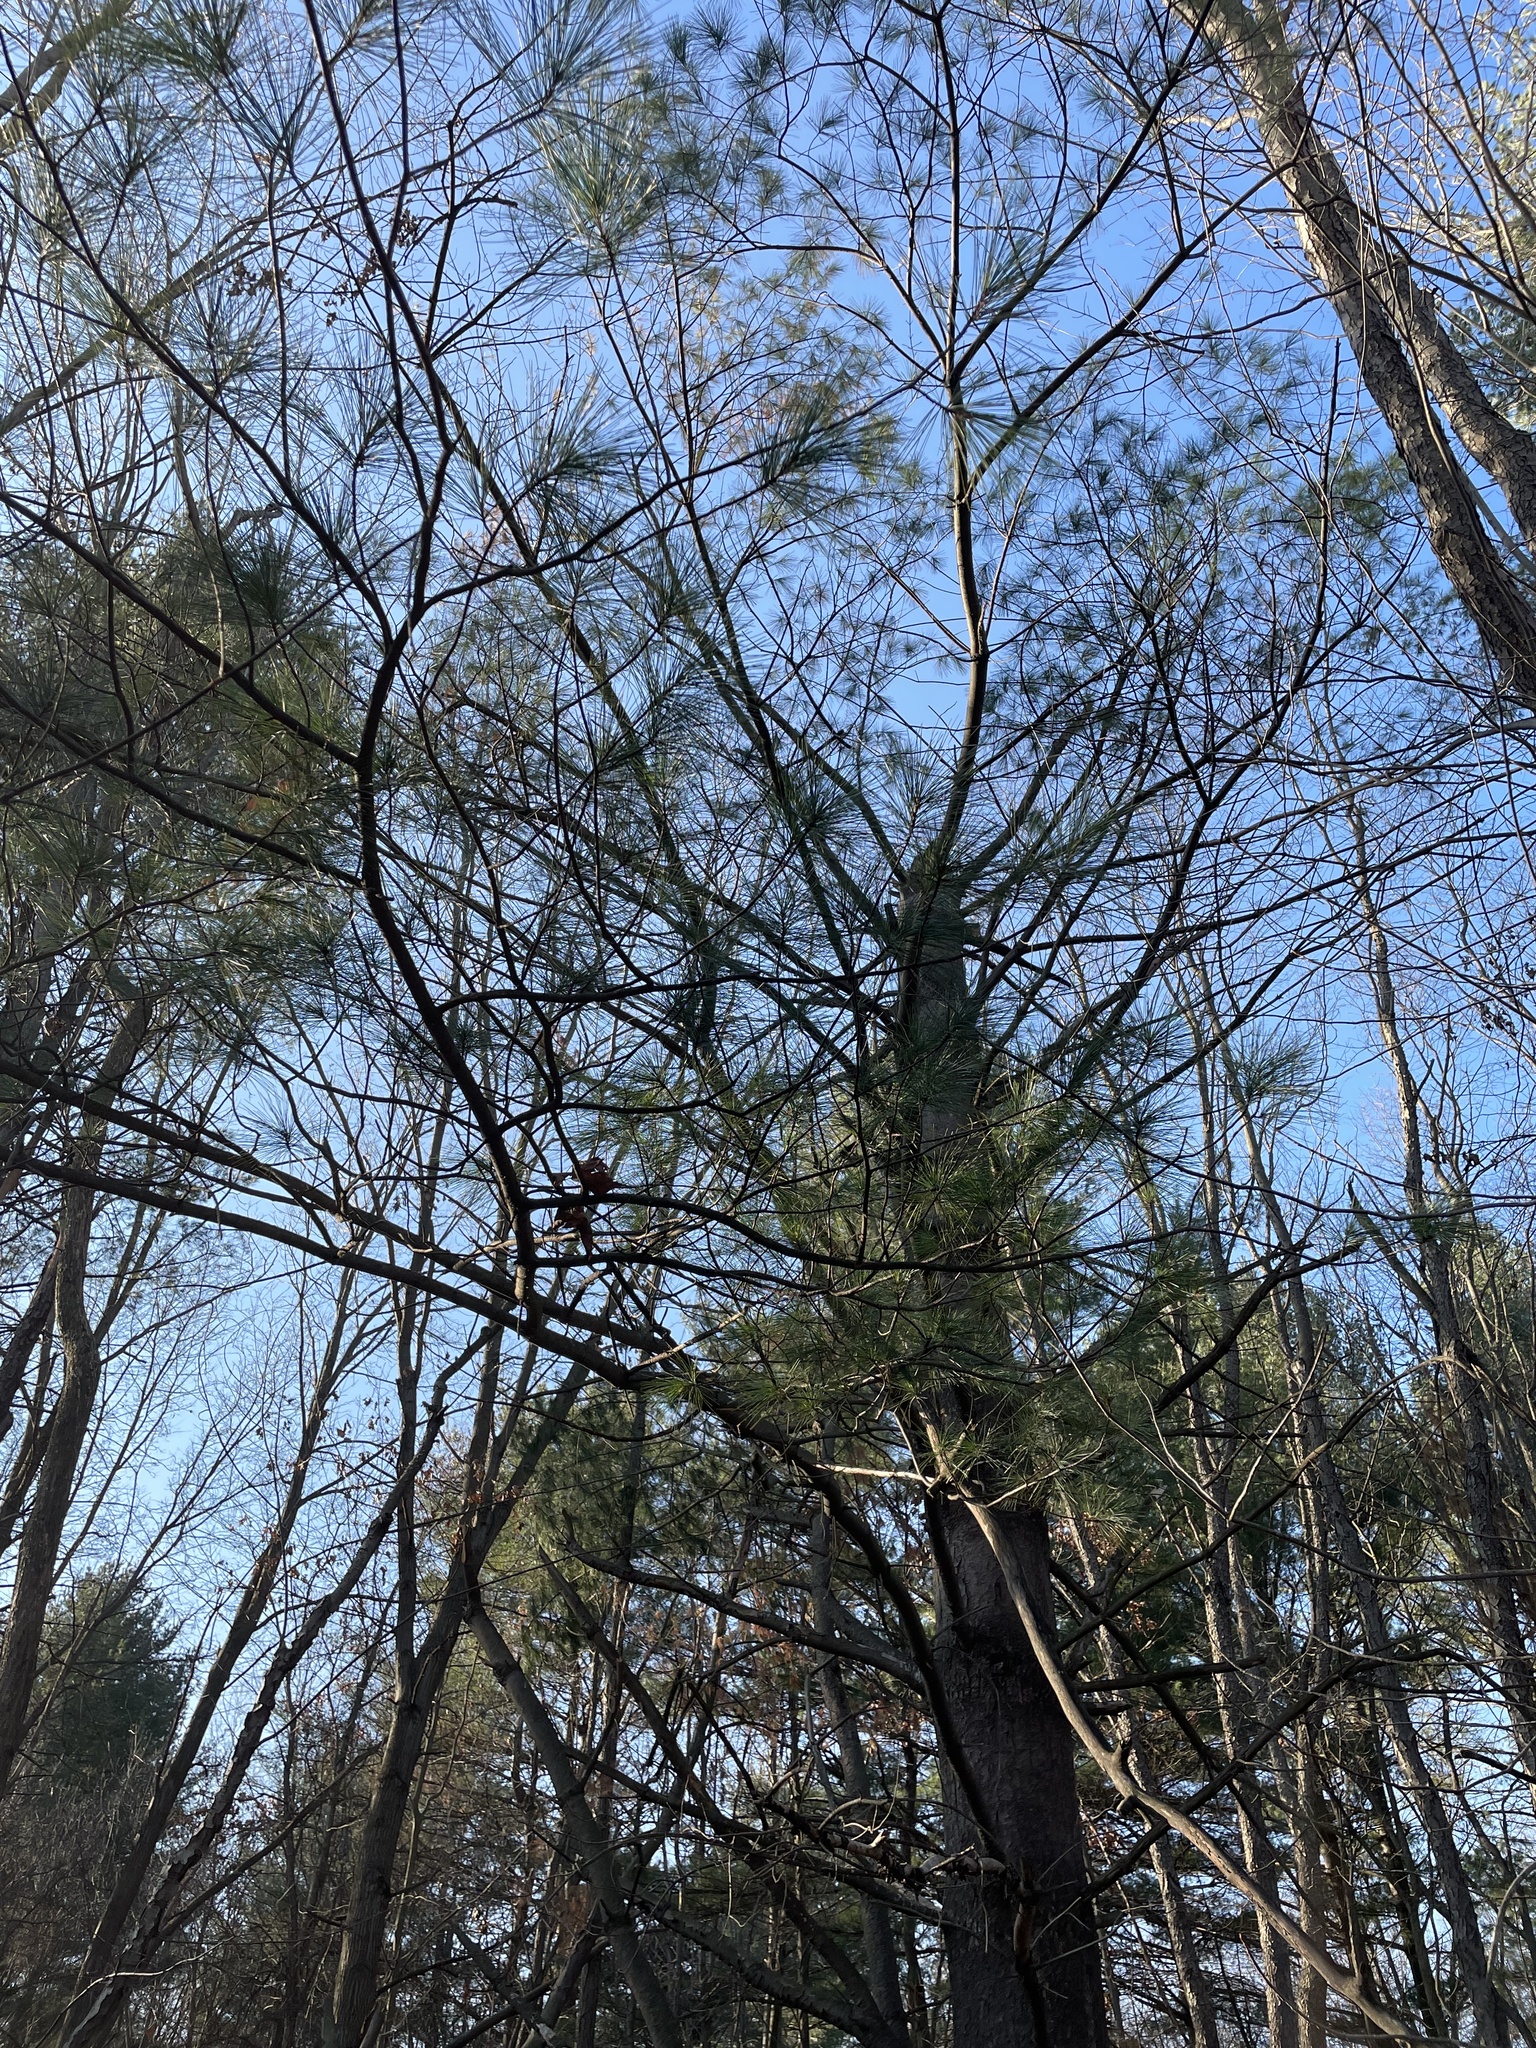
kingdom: Plantae
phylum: Tracheophyta
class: Pinopsida
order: Pinales
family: Pinaceae
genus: Pinus
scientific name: Pinus strobus
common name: Weymouth pine
